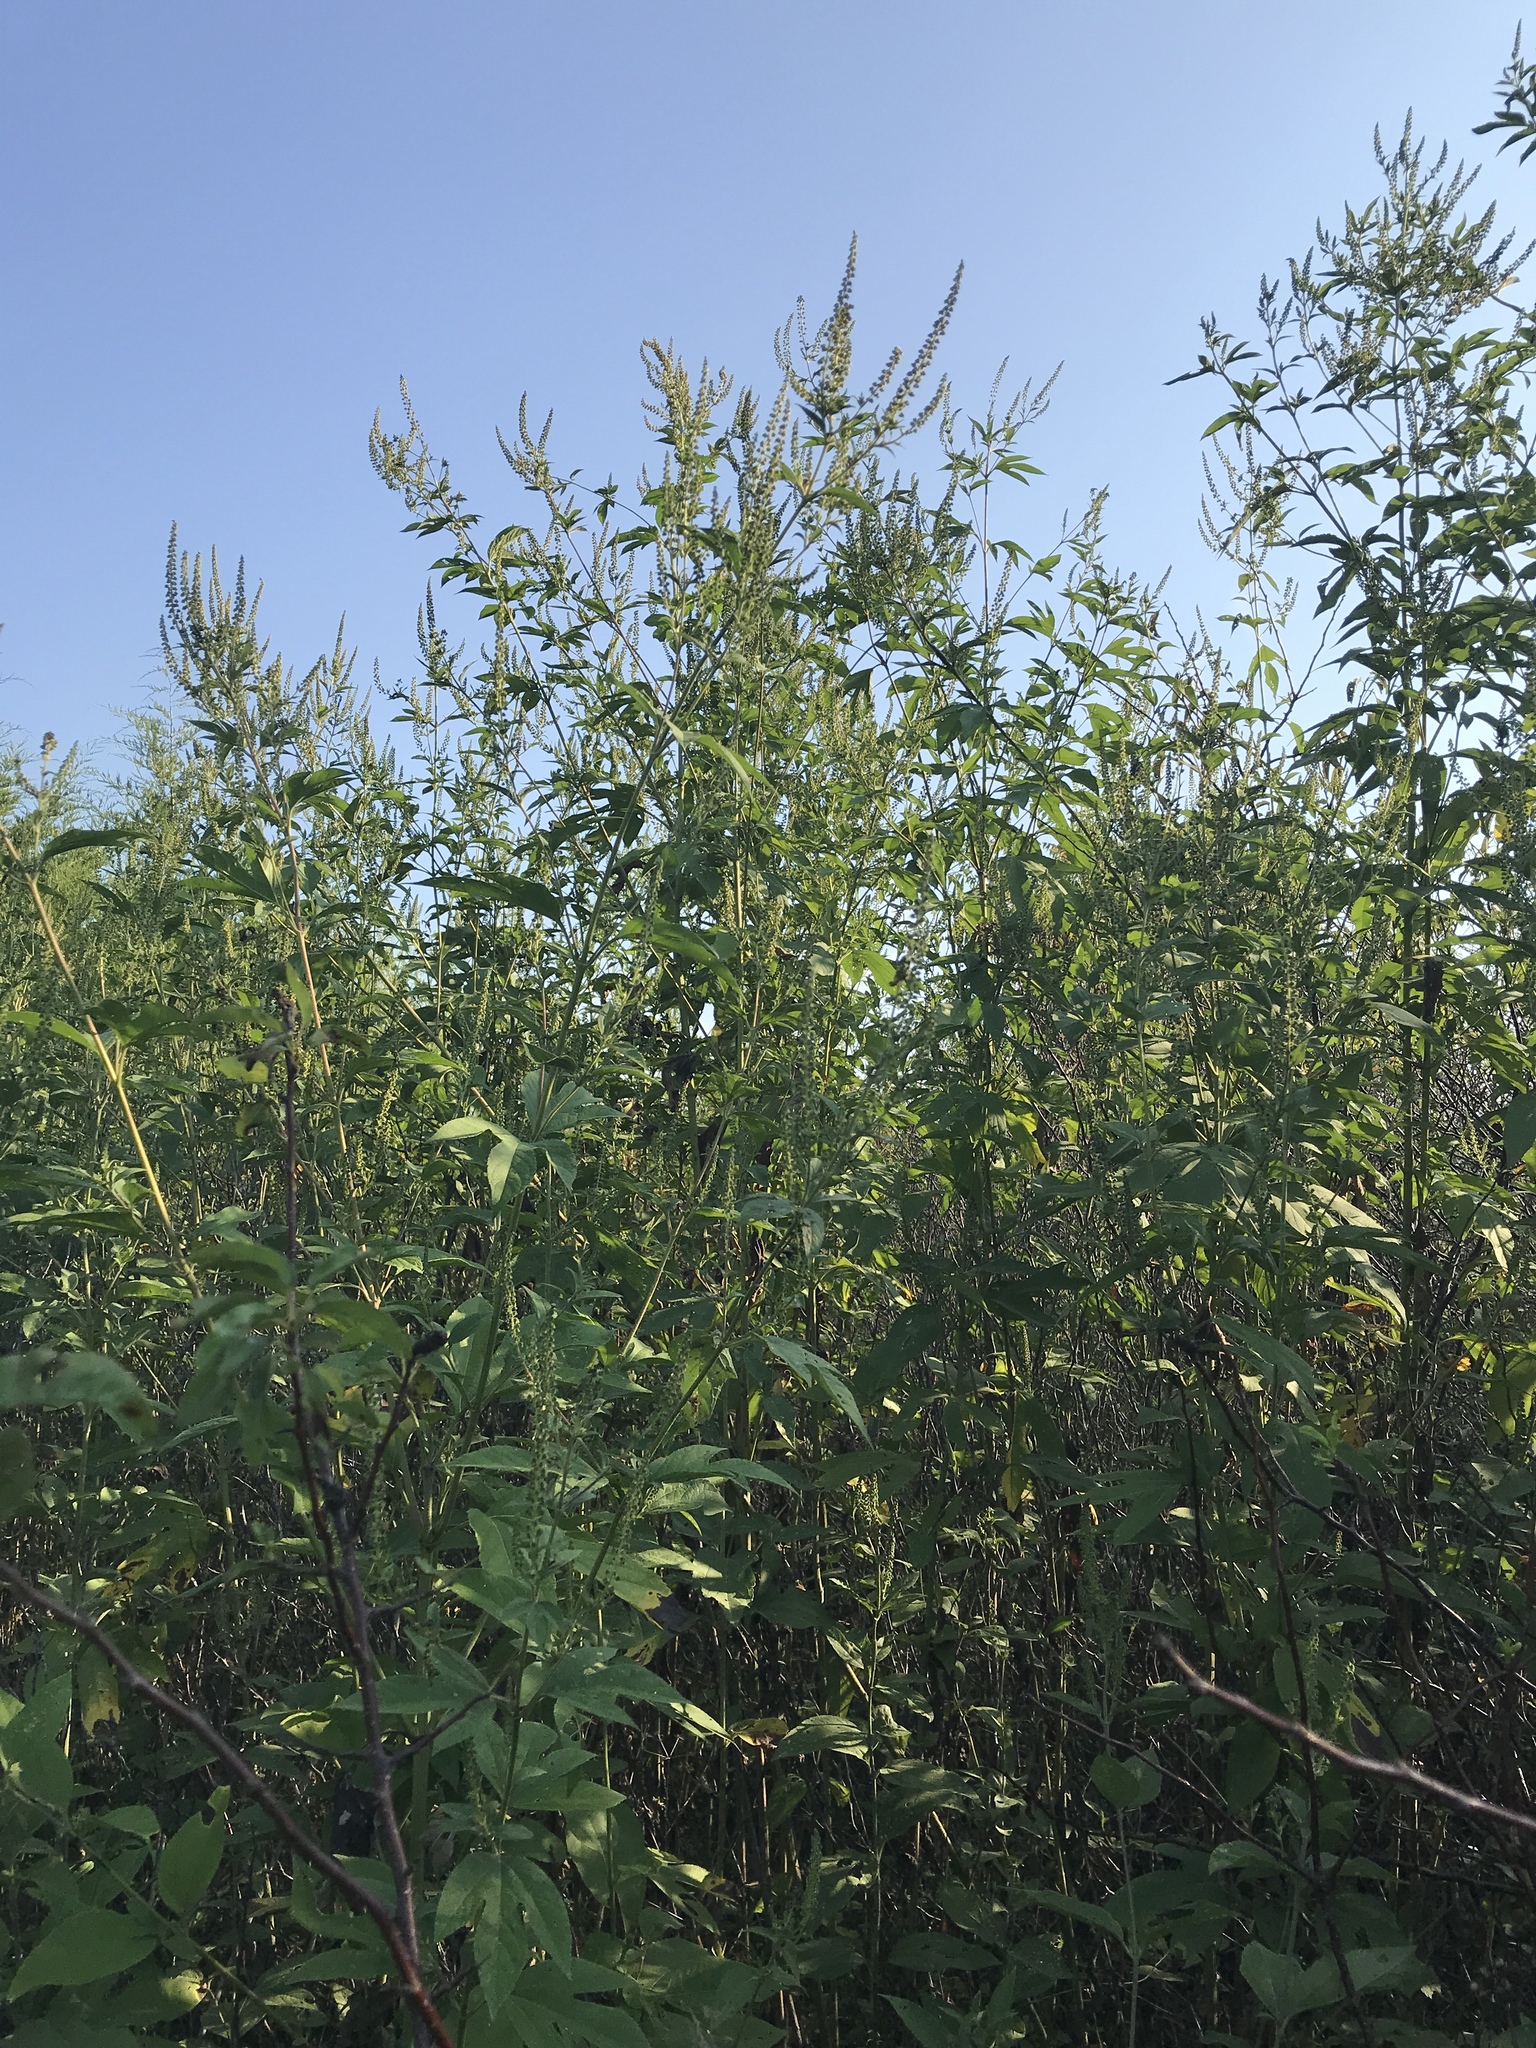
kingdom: Plantae
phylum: Tracheophyta
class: Magnoliopsida
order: Asterales
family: Asteraceae
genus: Ambrosia
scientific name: Ambrosia trifida
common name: Giant ragweed
